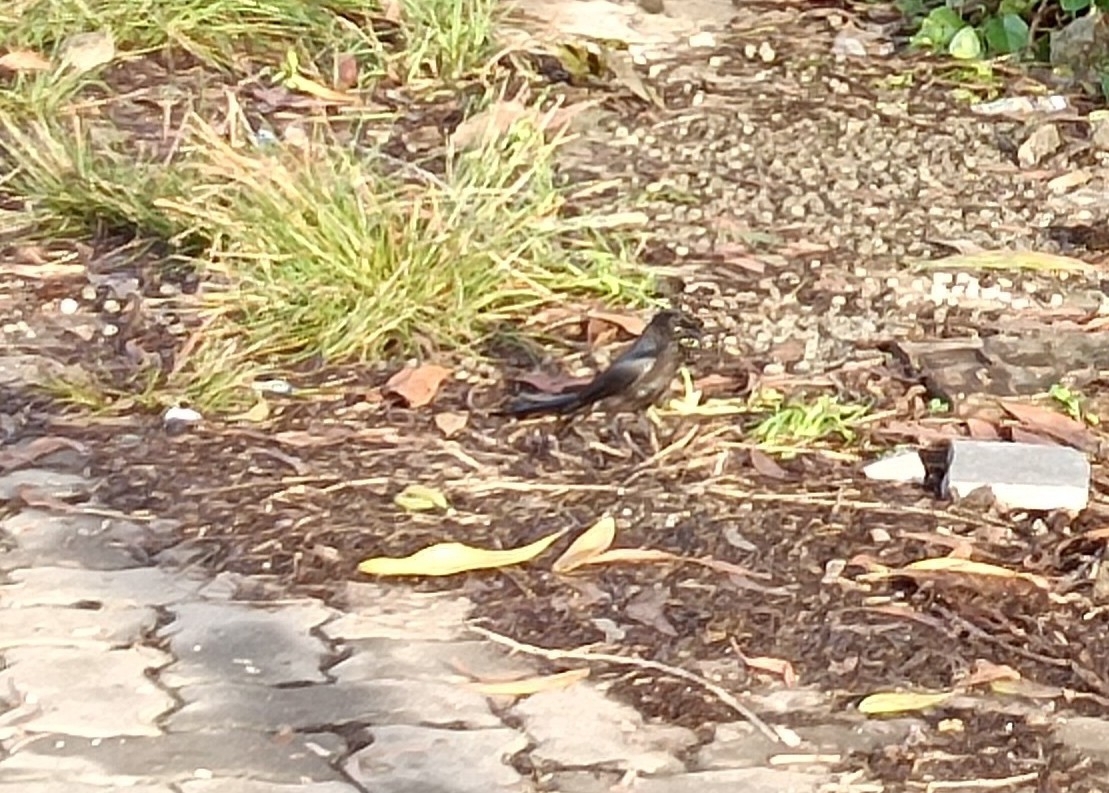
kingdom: Animalia
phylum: Chordata
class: Aves
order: Passeriformes
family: Dicruridae
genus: Dicrurus
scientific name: Dicrurus macrocercus
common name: Black drongo
